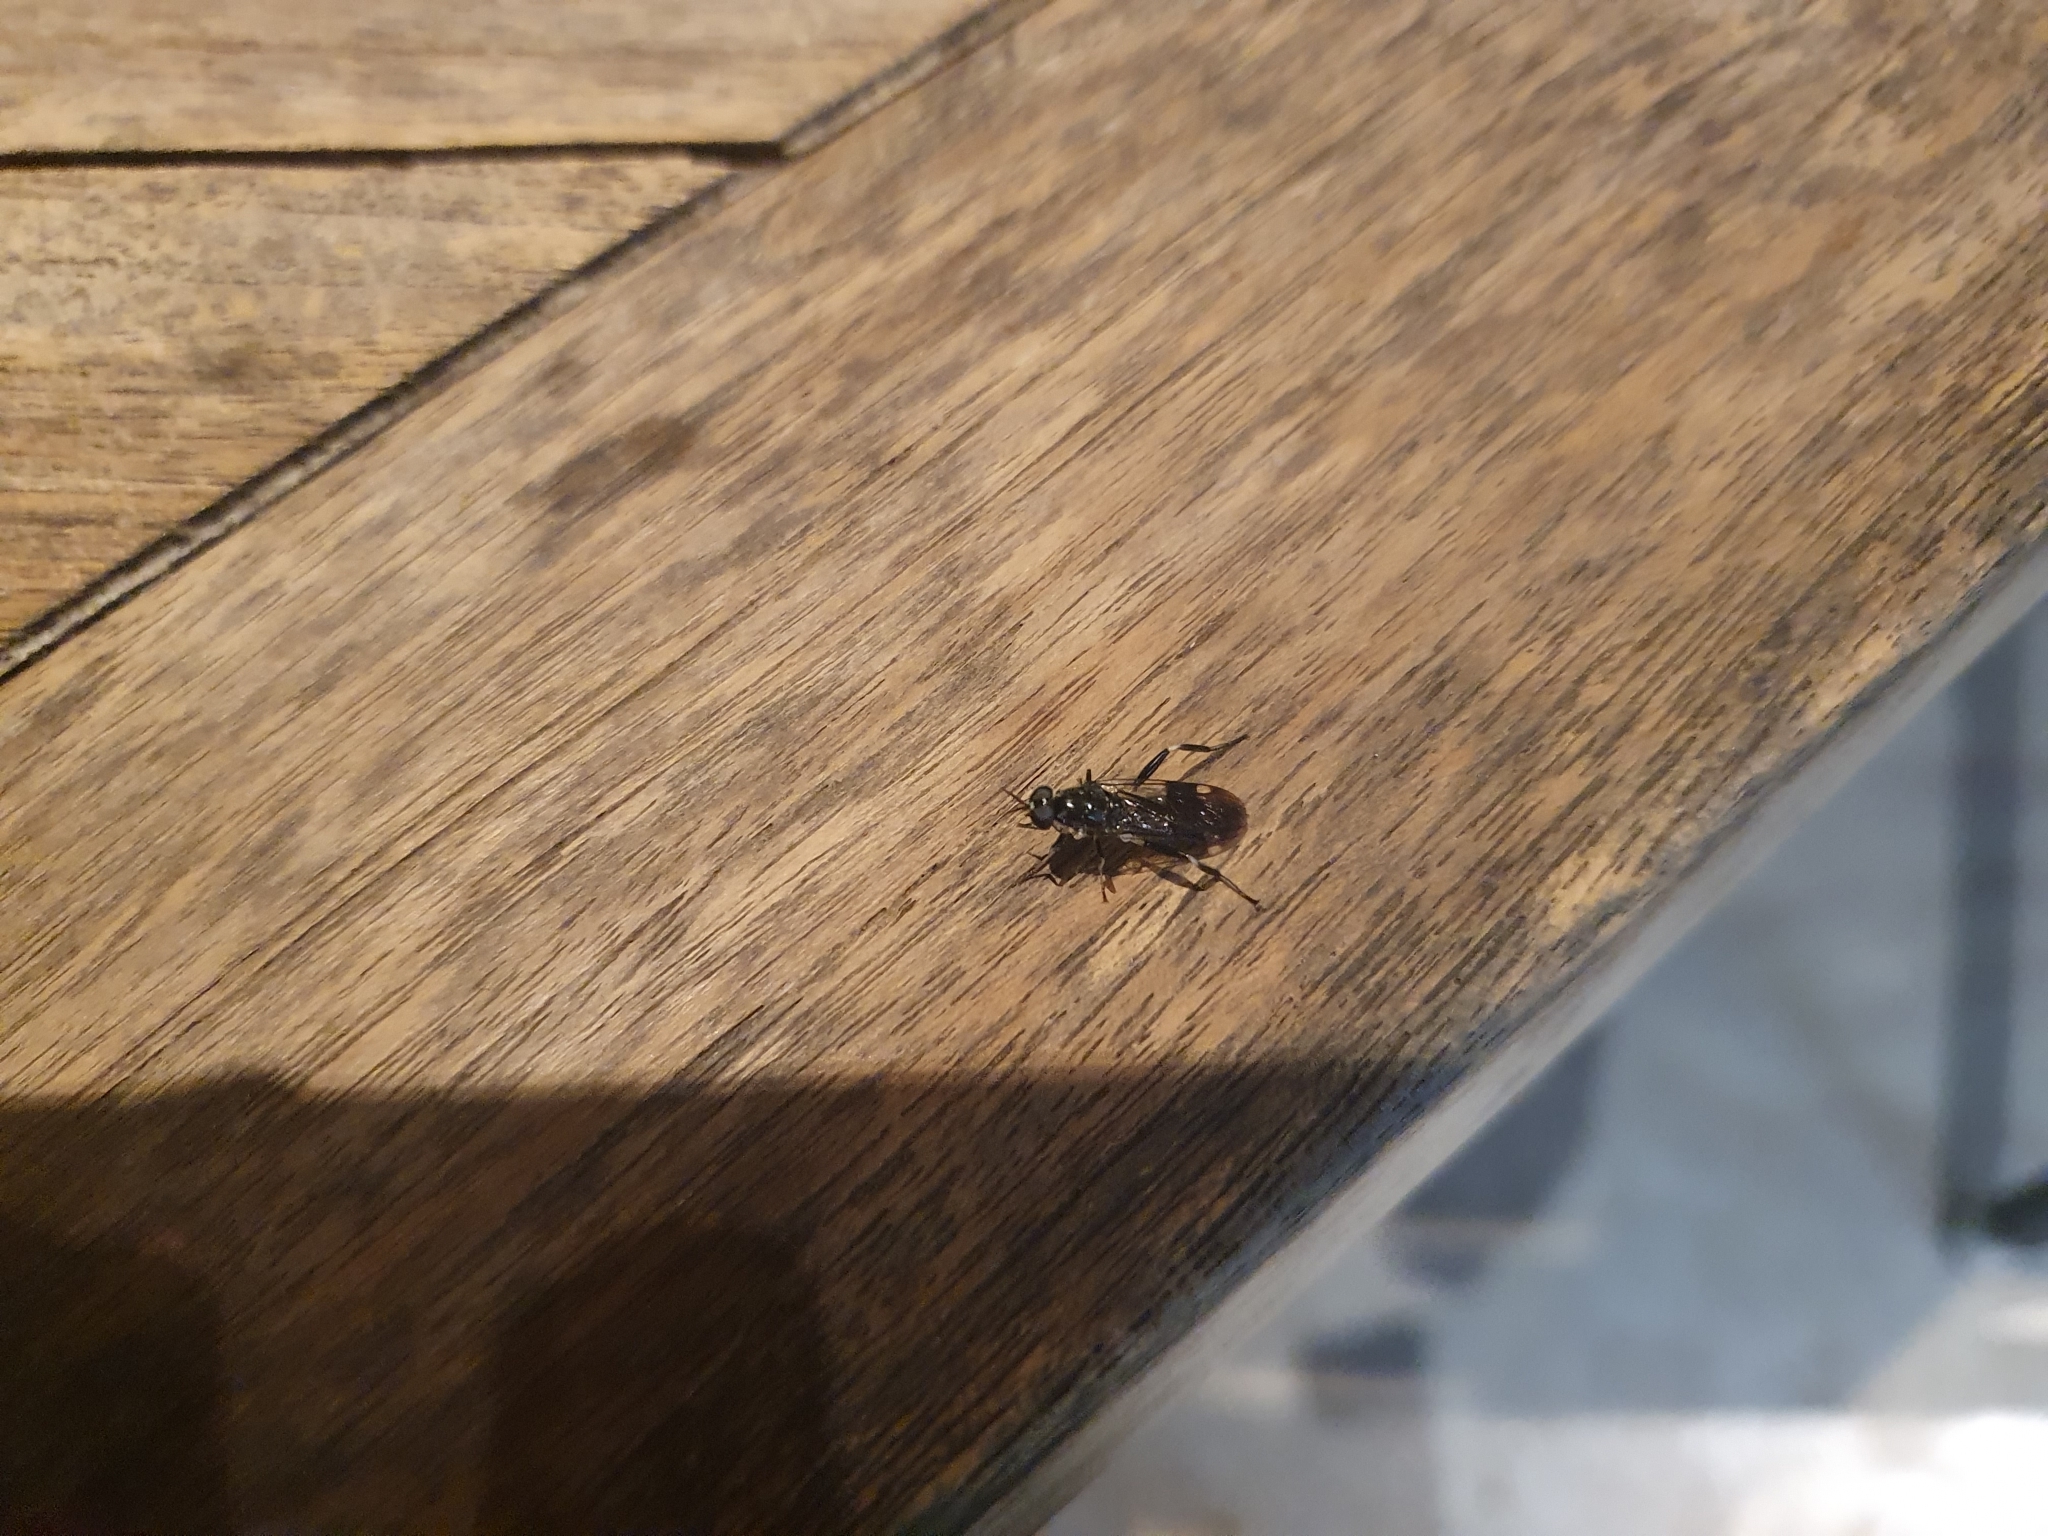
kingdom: Animalia
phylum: Arthropoda
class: Insecta
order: Diptera
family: Stratiomyidae
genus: Exaireta
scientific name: Exaireta spinigera
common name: Blue soldier fly
